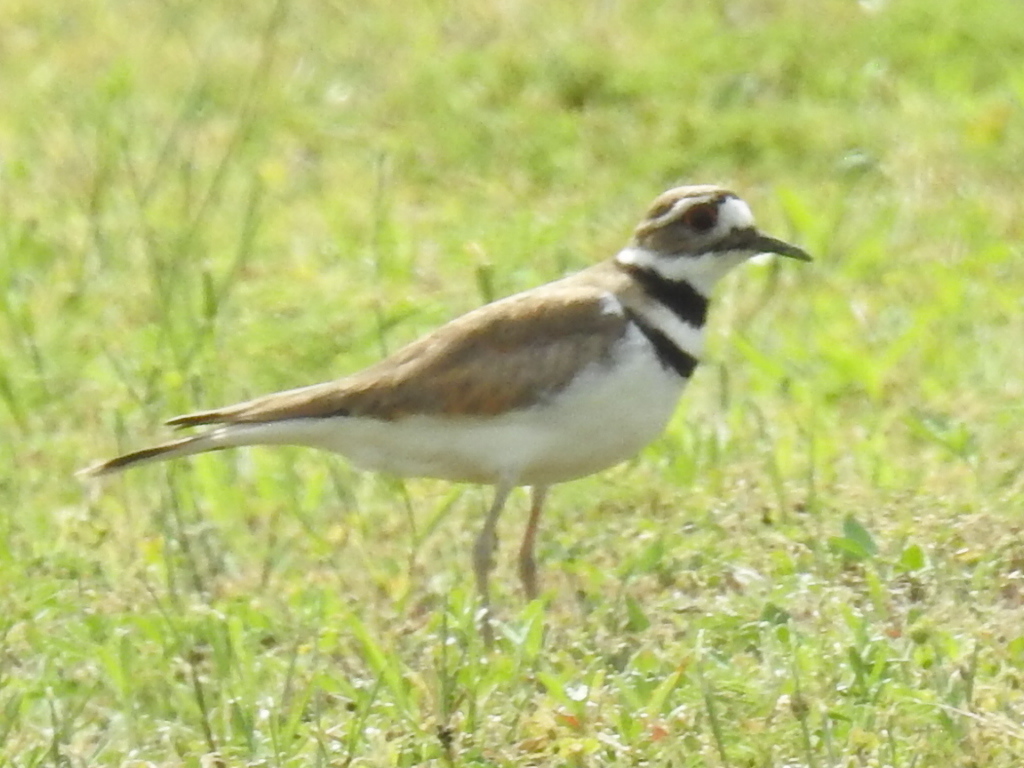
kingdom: Animalia
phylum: Chordata
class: Aves
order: Charadriiformes
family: Charadriidae
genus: Charadrius
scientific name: Charadrius vociferus
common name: Killdeer
